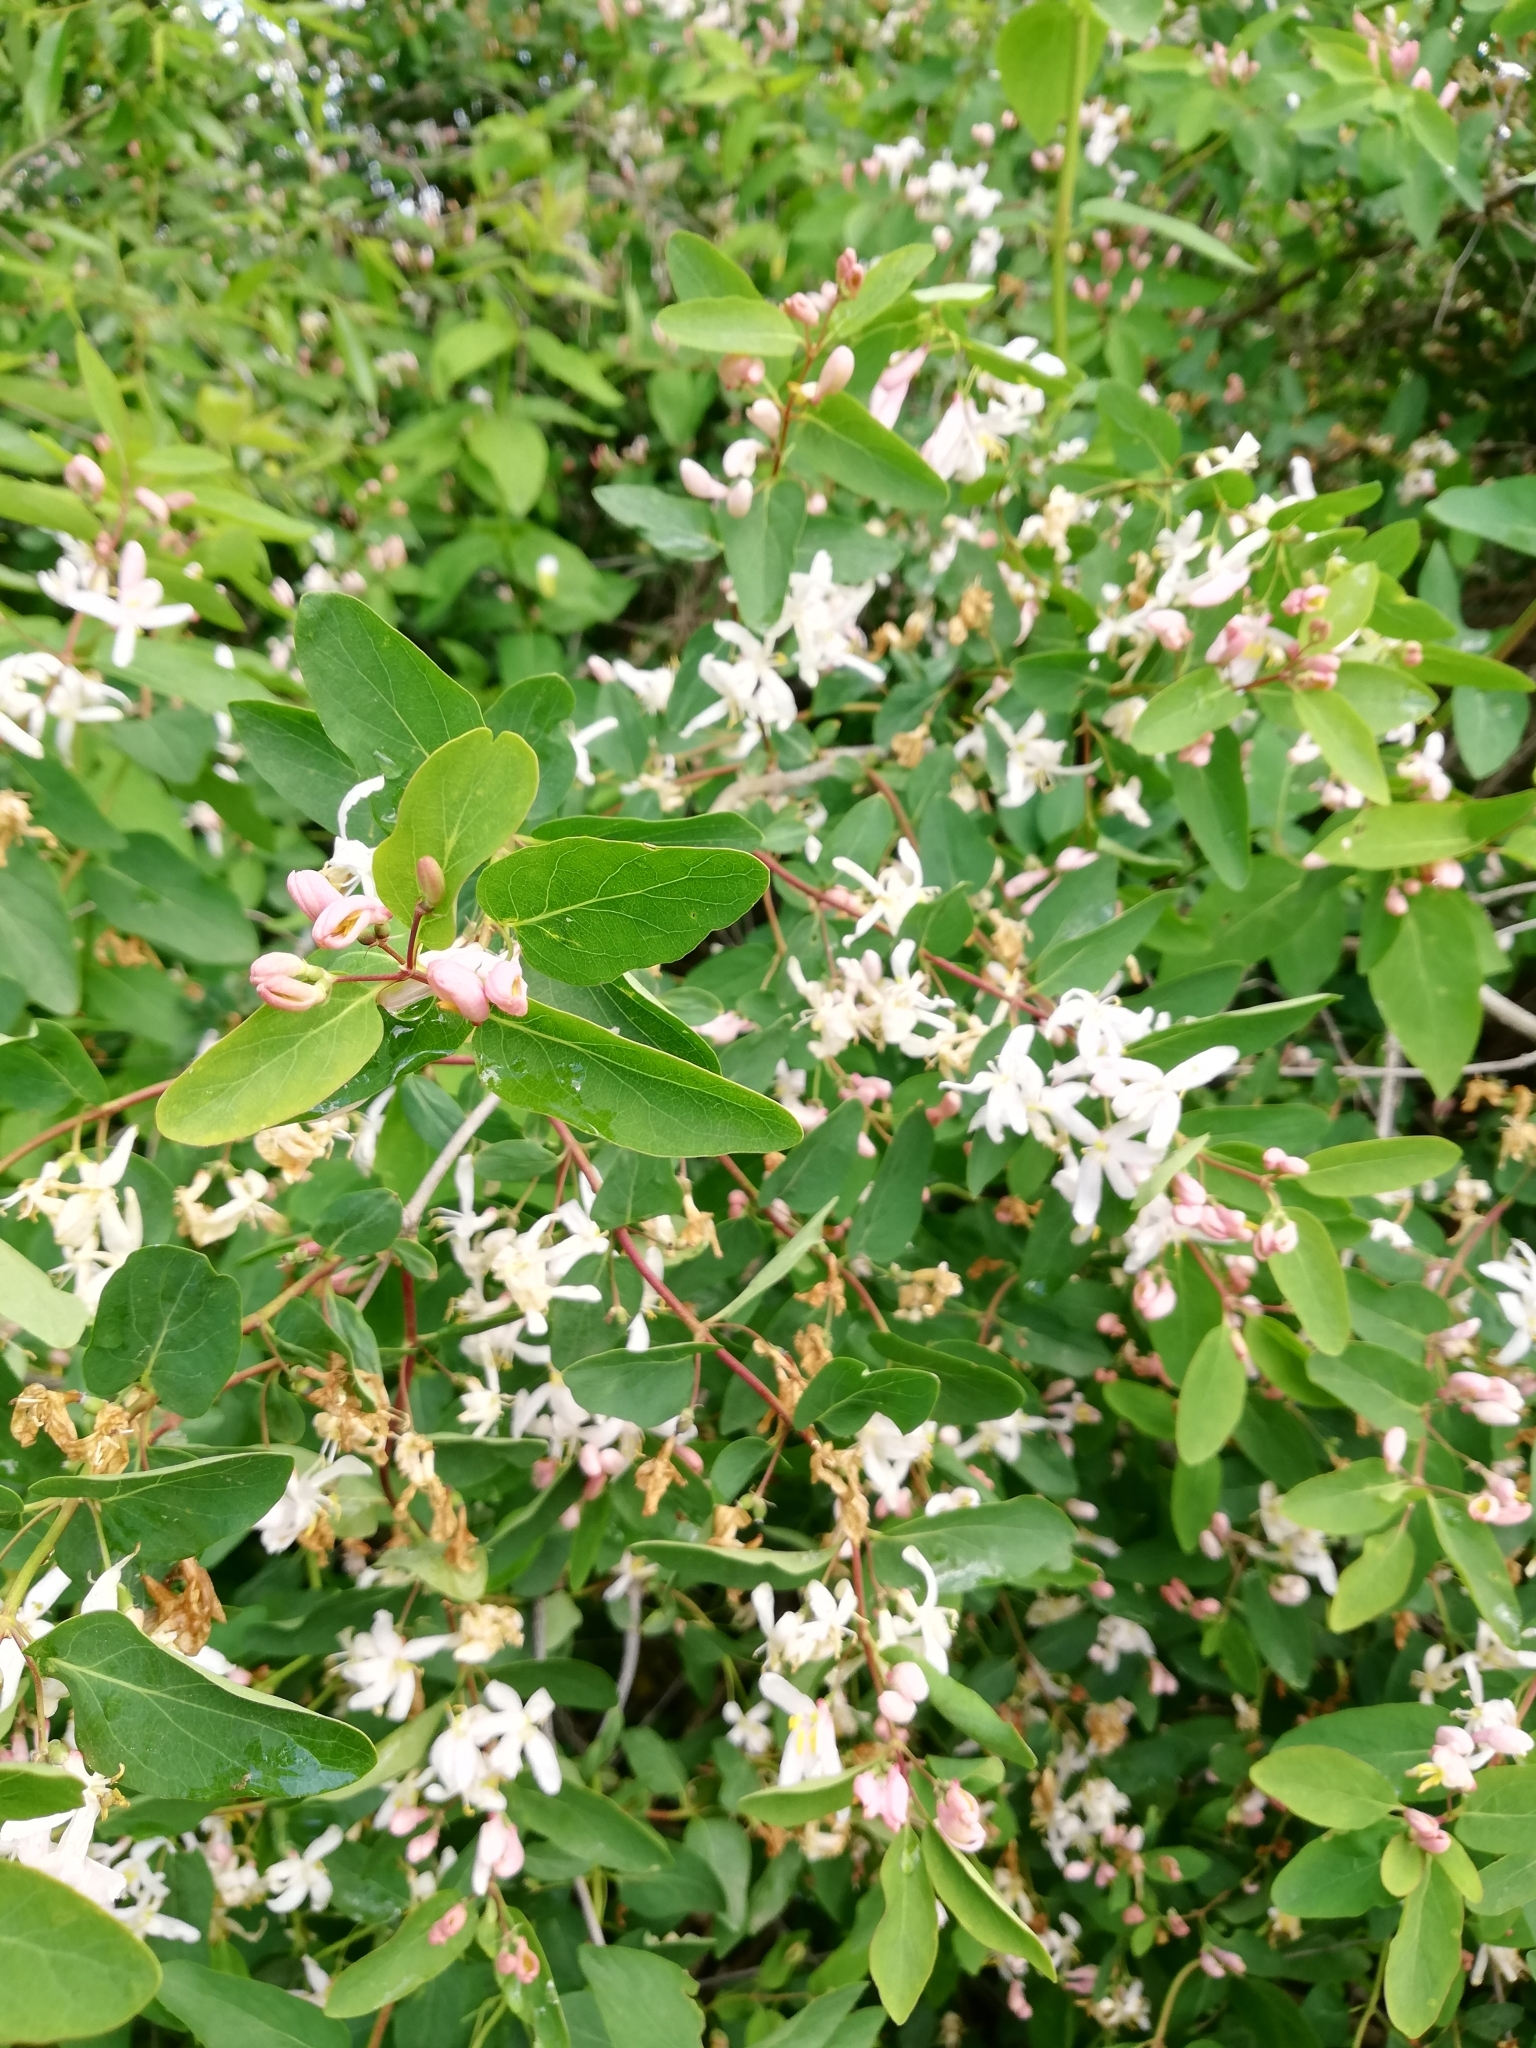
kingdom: Plantae
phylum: Tracheophyta
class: Magnoliopsida
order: Dipsacales
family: Caprifoliaceae
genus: Lonicera
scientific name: Lonicera tatarica
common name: Tatarian honeysuckle
